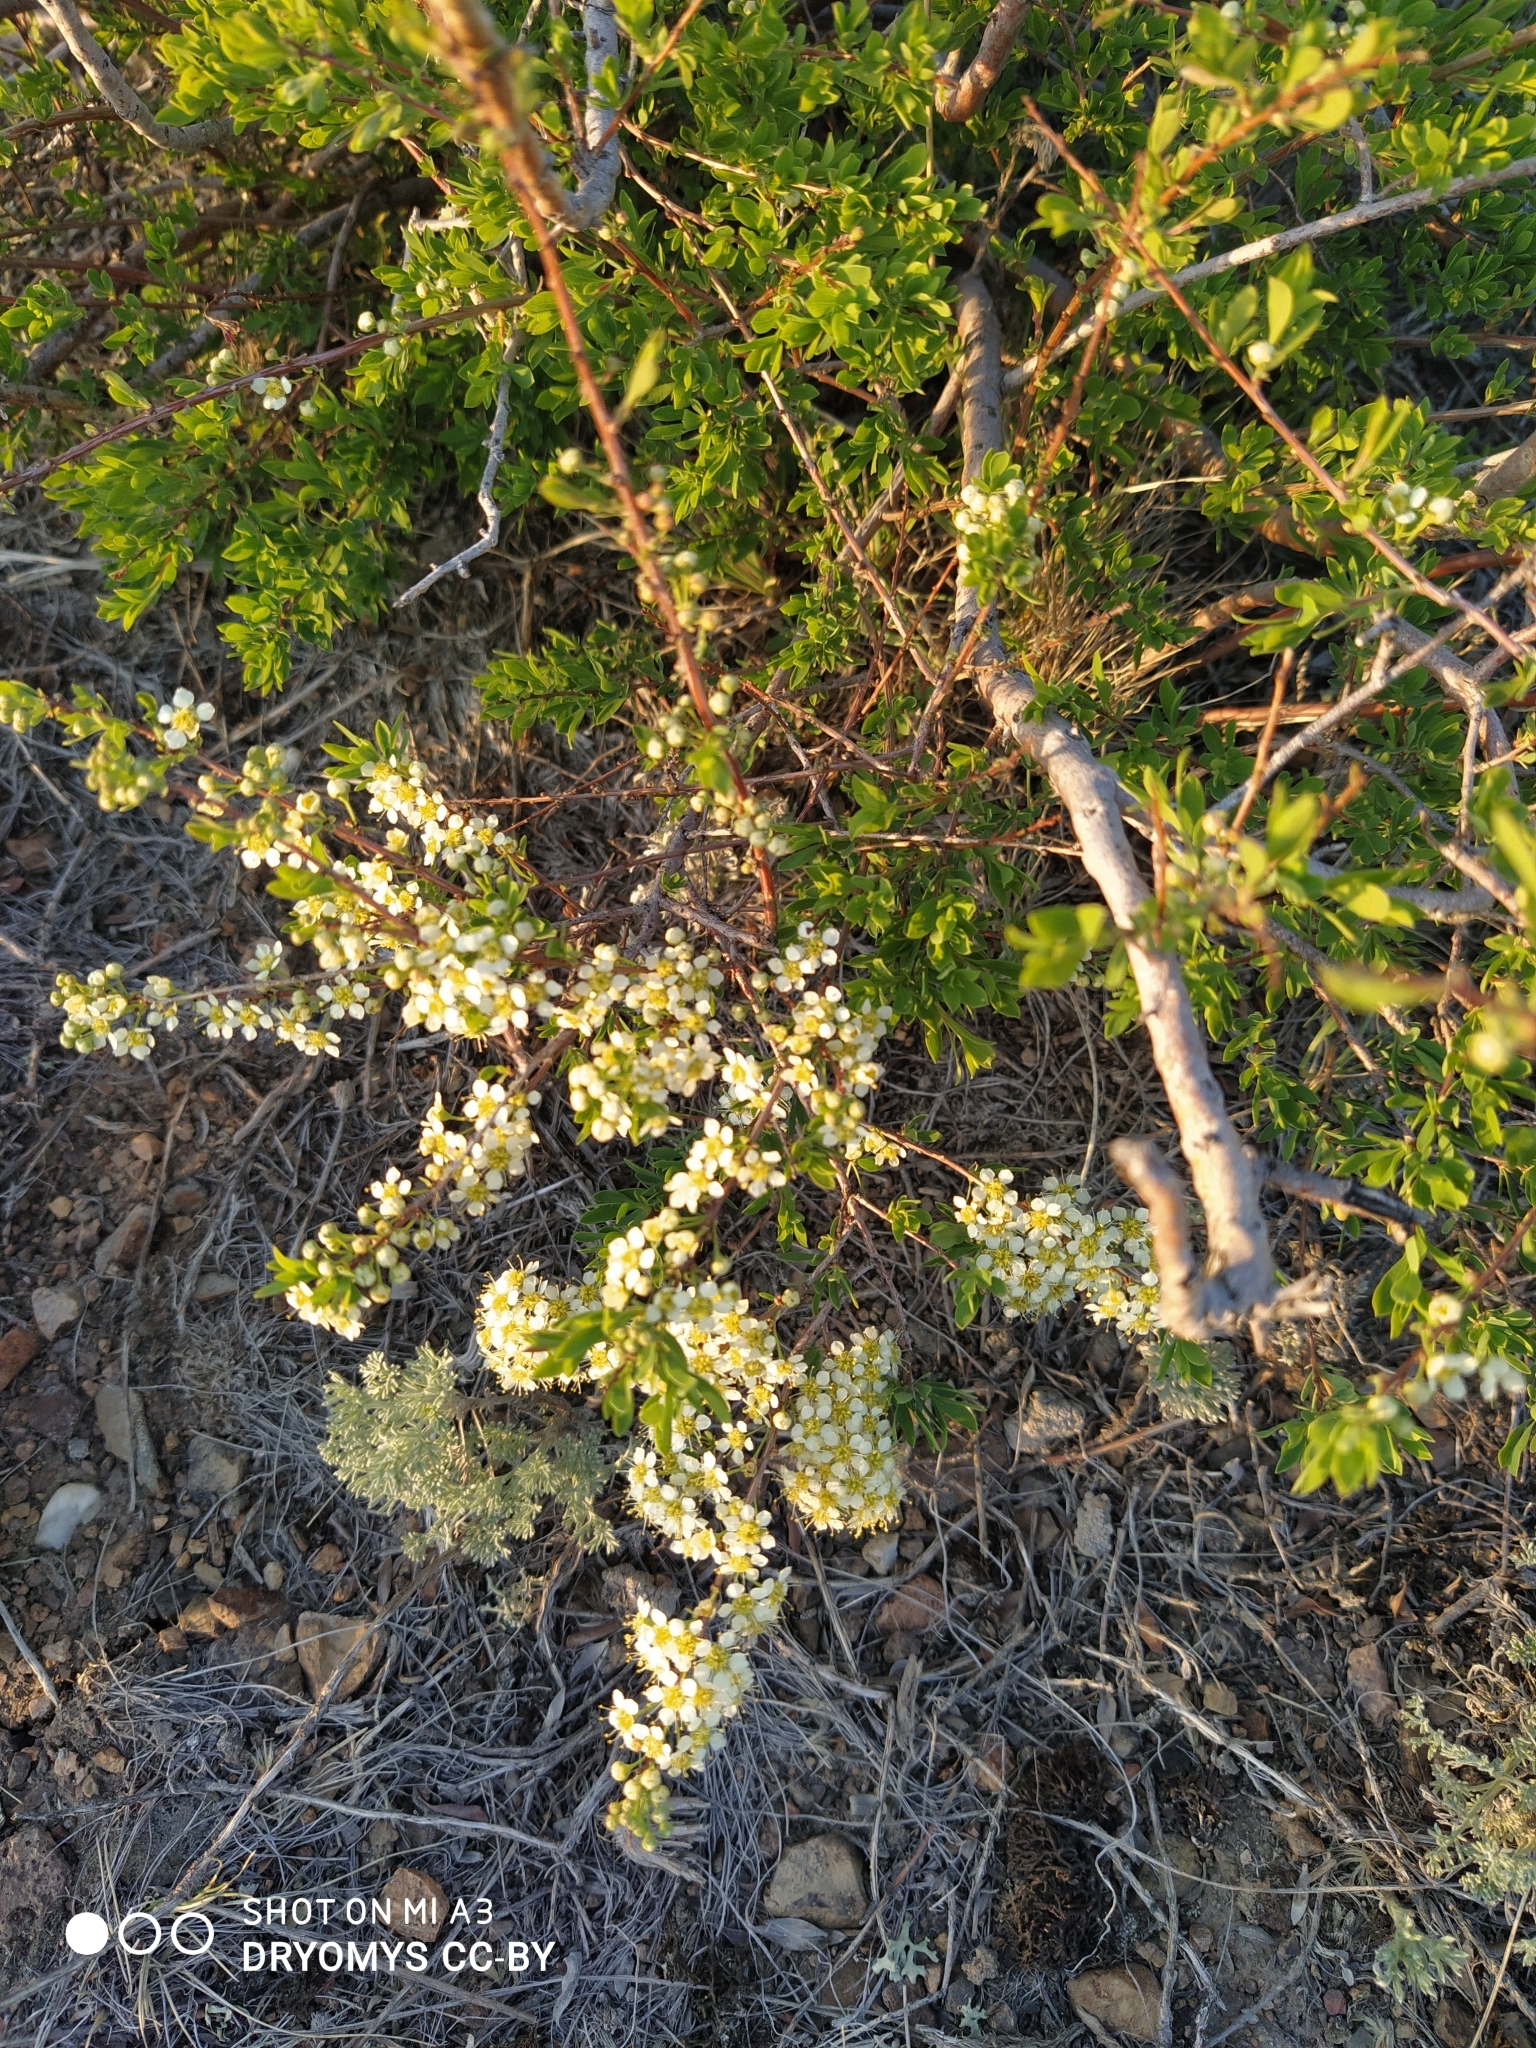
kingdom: Plantae
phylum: Tracheophyta
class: Magnoliopsida
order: Rosales
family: Rosaceae
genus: Spiraea
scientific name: Spiraea hypericifolia
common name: Iberian spirea
